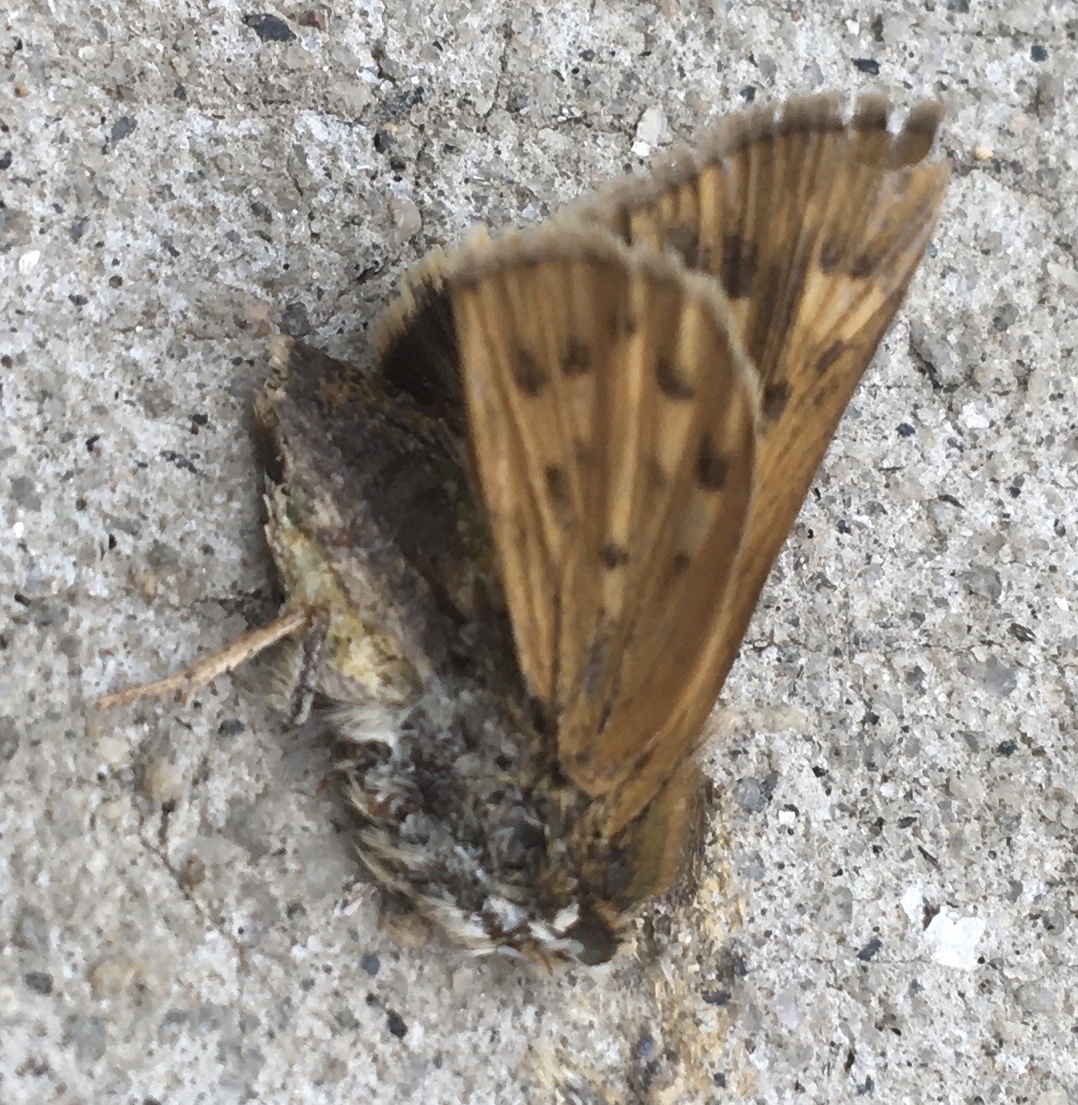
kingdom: Animalia
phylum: Arthropoda
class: Insecta
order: Lepidoptera
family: Hesperiidae
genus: Hylephila
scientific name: Hylephila phyleus
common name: Fiery skipper
